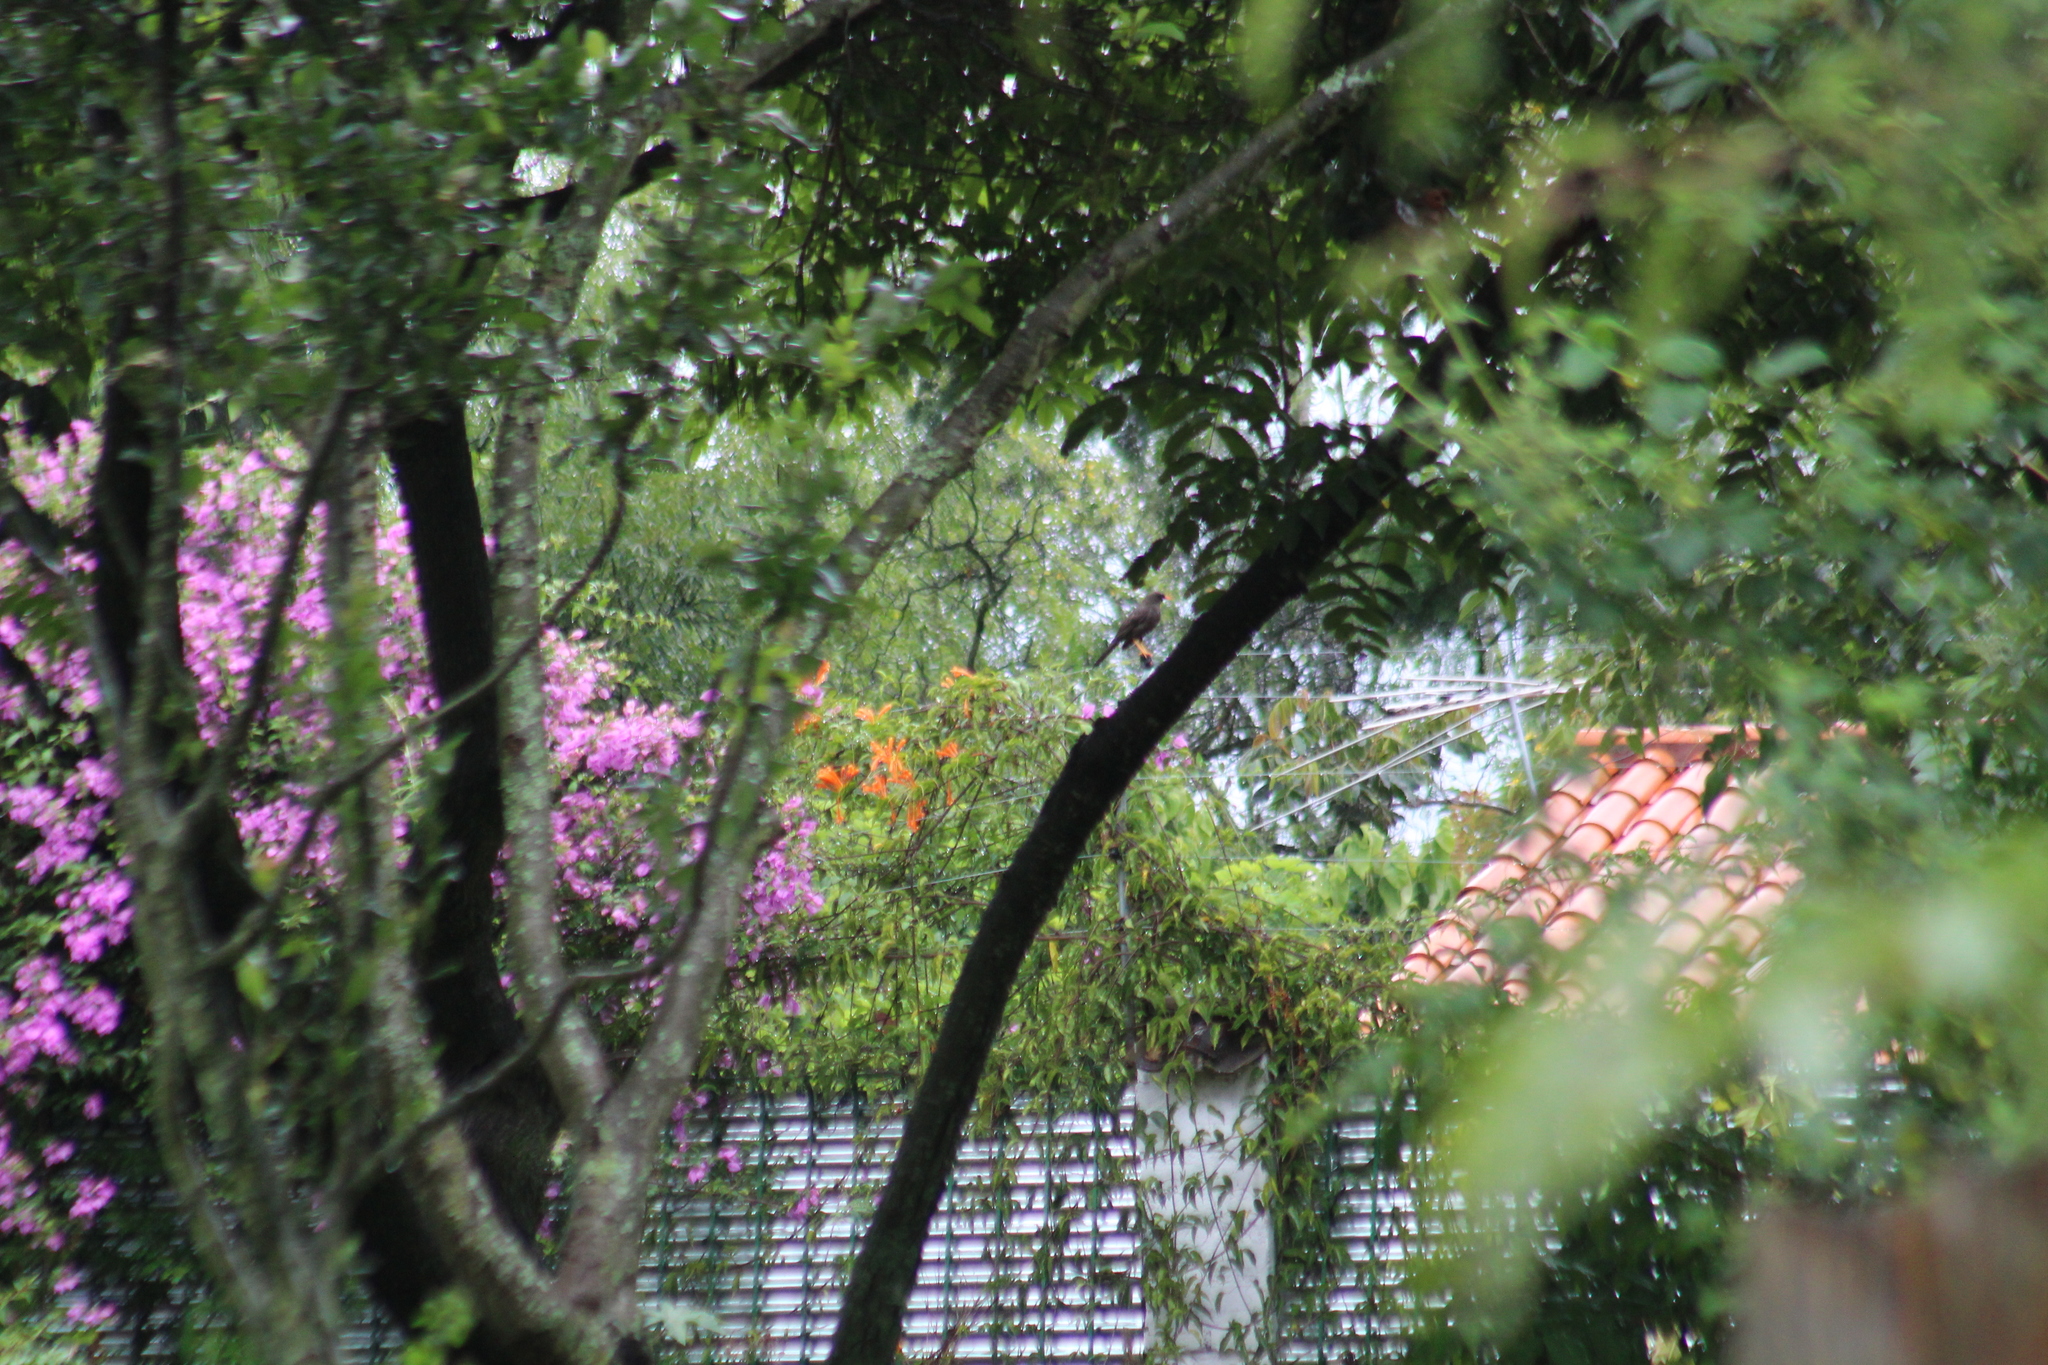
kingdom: Animalia
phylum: Chordata
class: Aves
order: Passeriformes
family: Turdidae
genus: Turdus
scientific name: Turdus fuscater
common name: Great thrush
